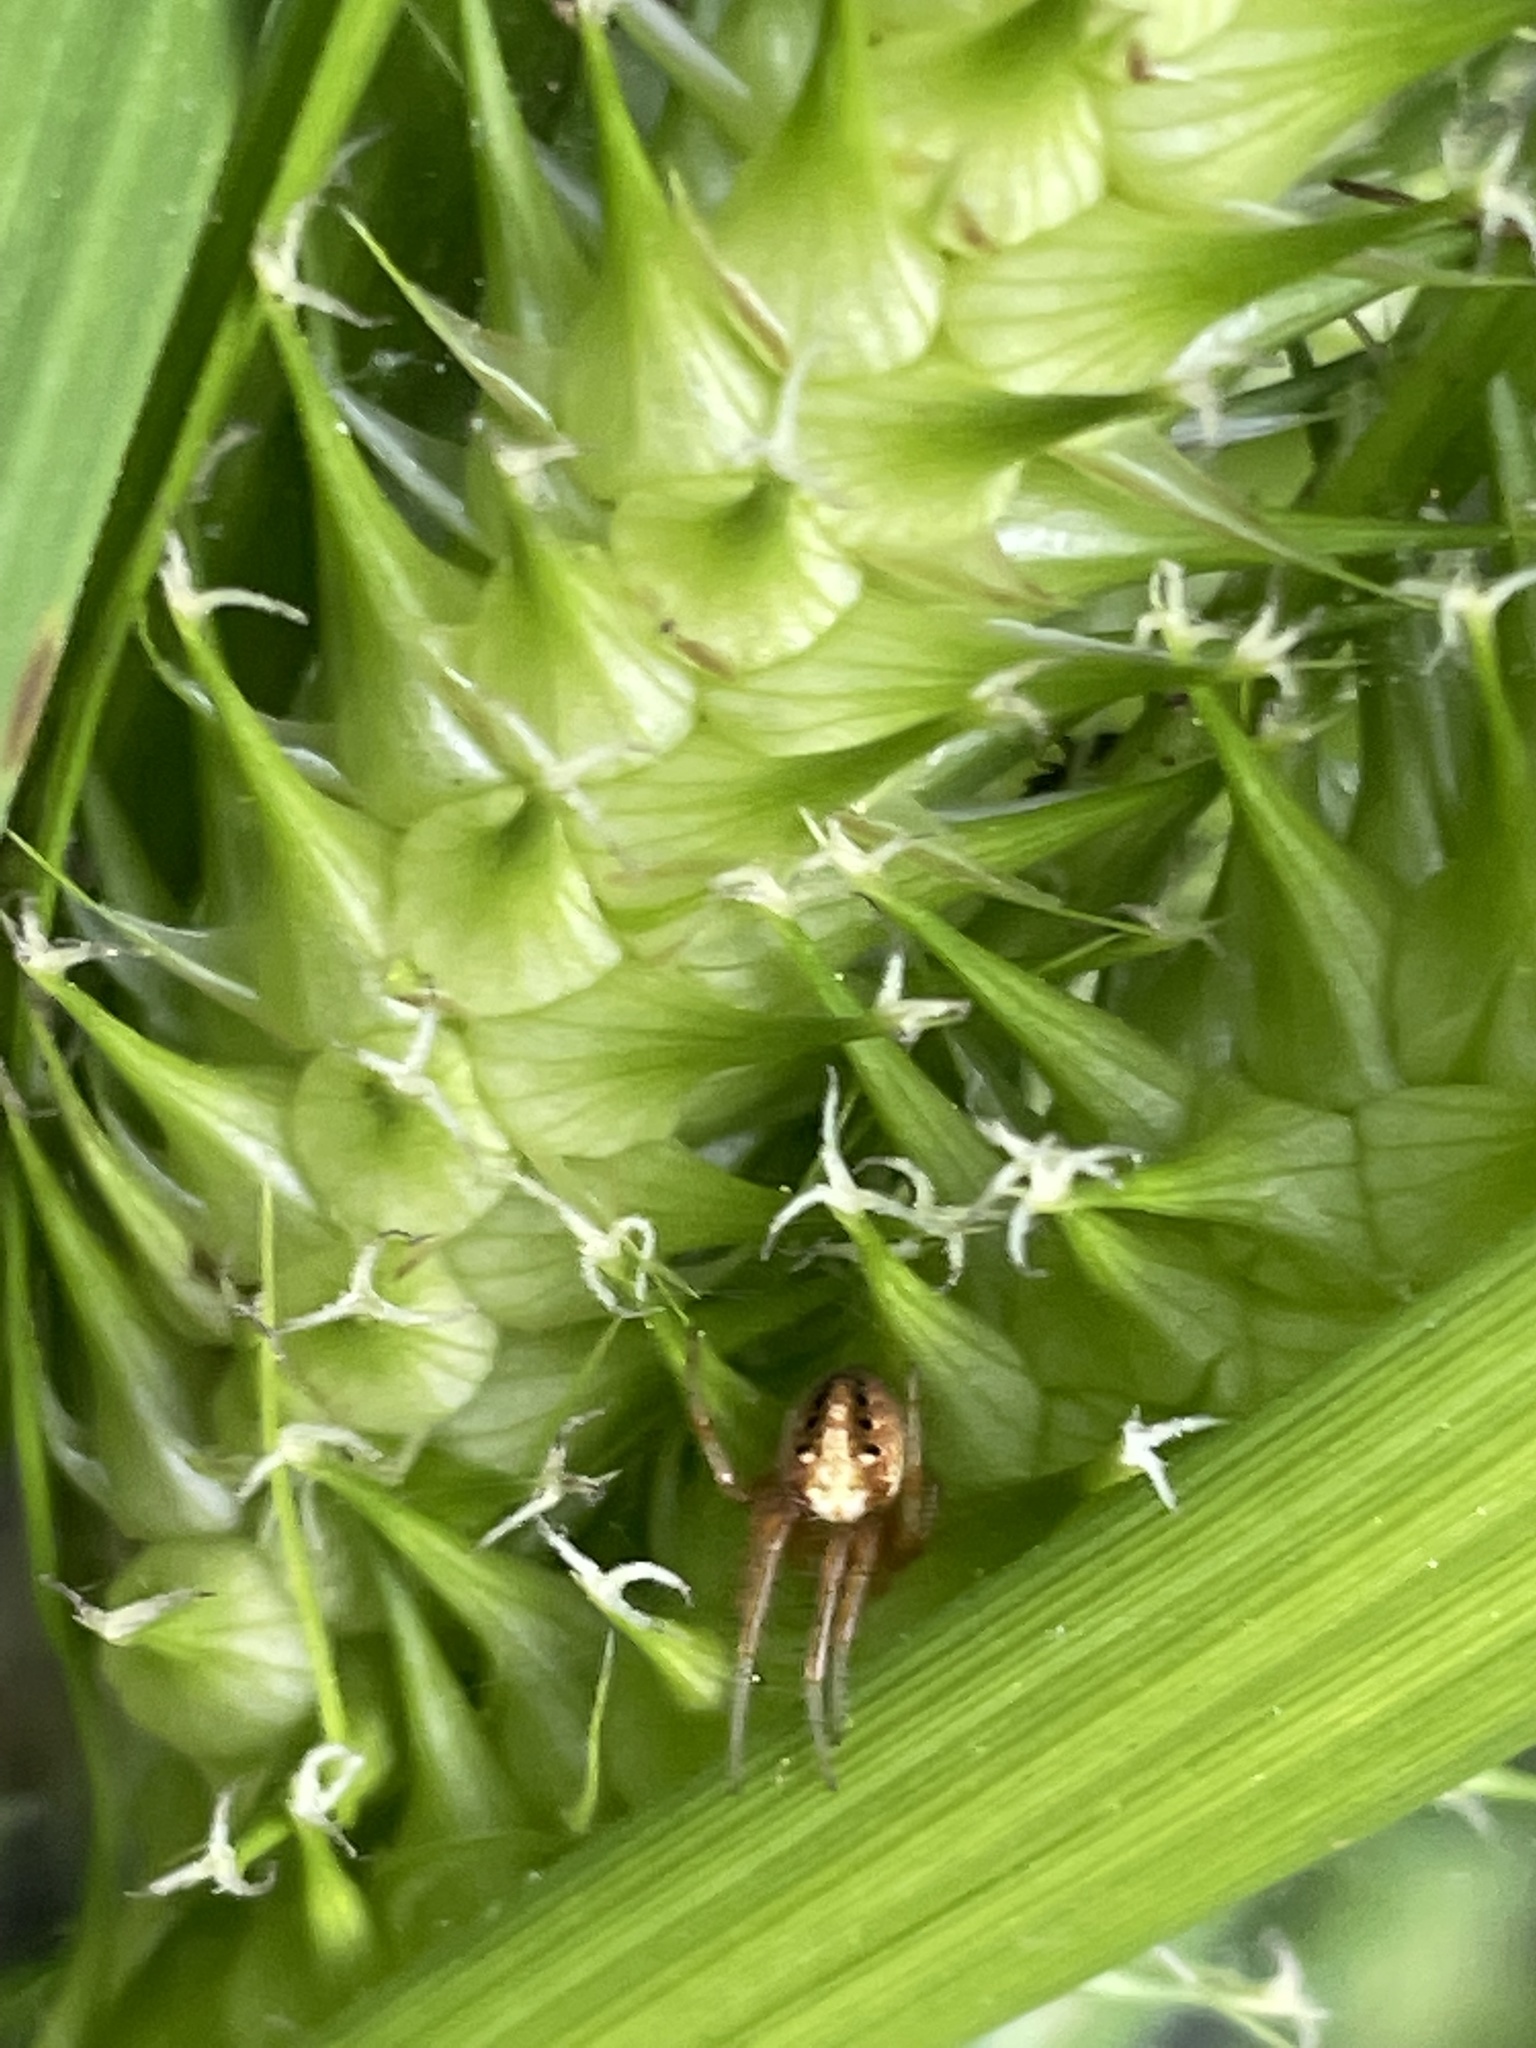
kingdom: Animalia
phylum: Arthropoda
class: Arachnida
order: Araneae
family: Araneidae
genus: Neoscona
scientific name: Neoscona arabesca
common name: Orb weavers
